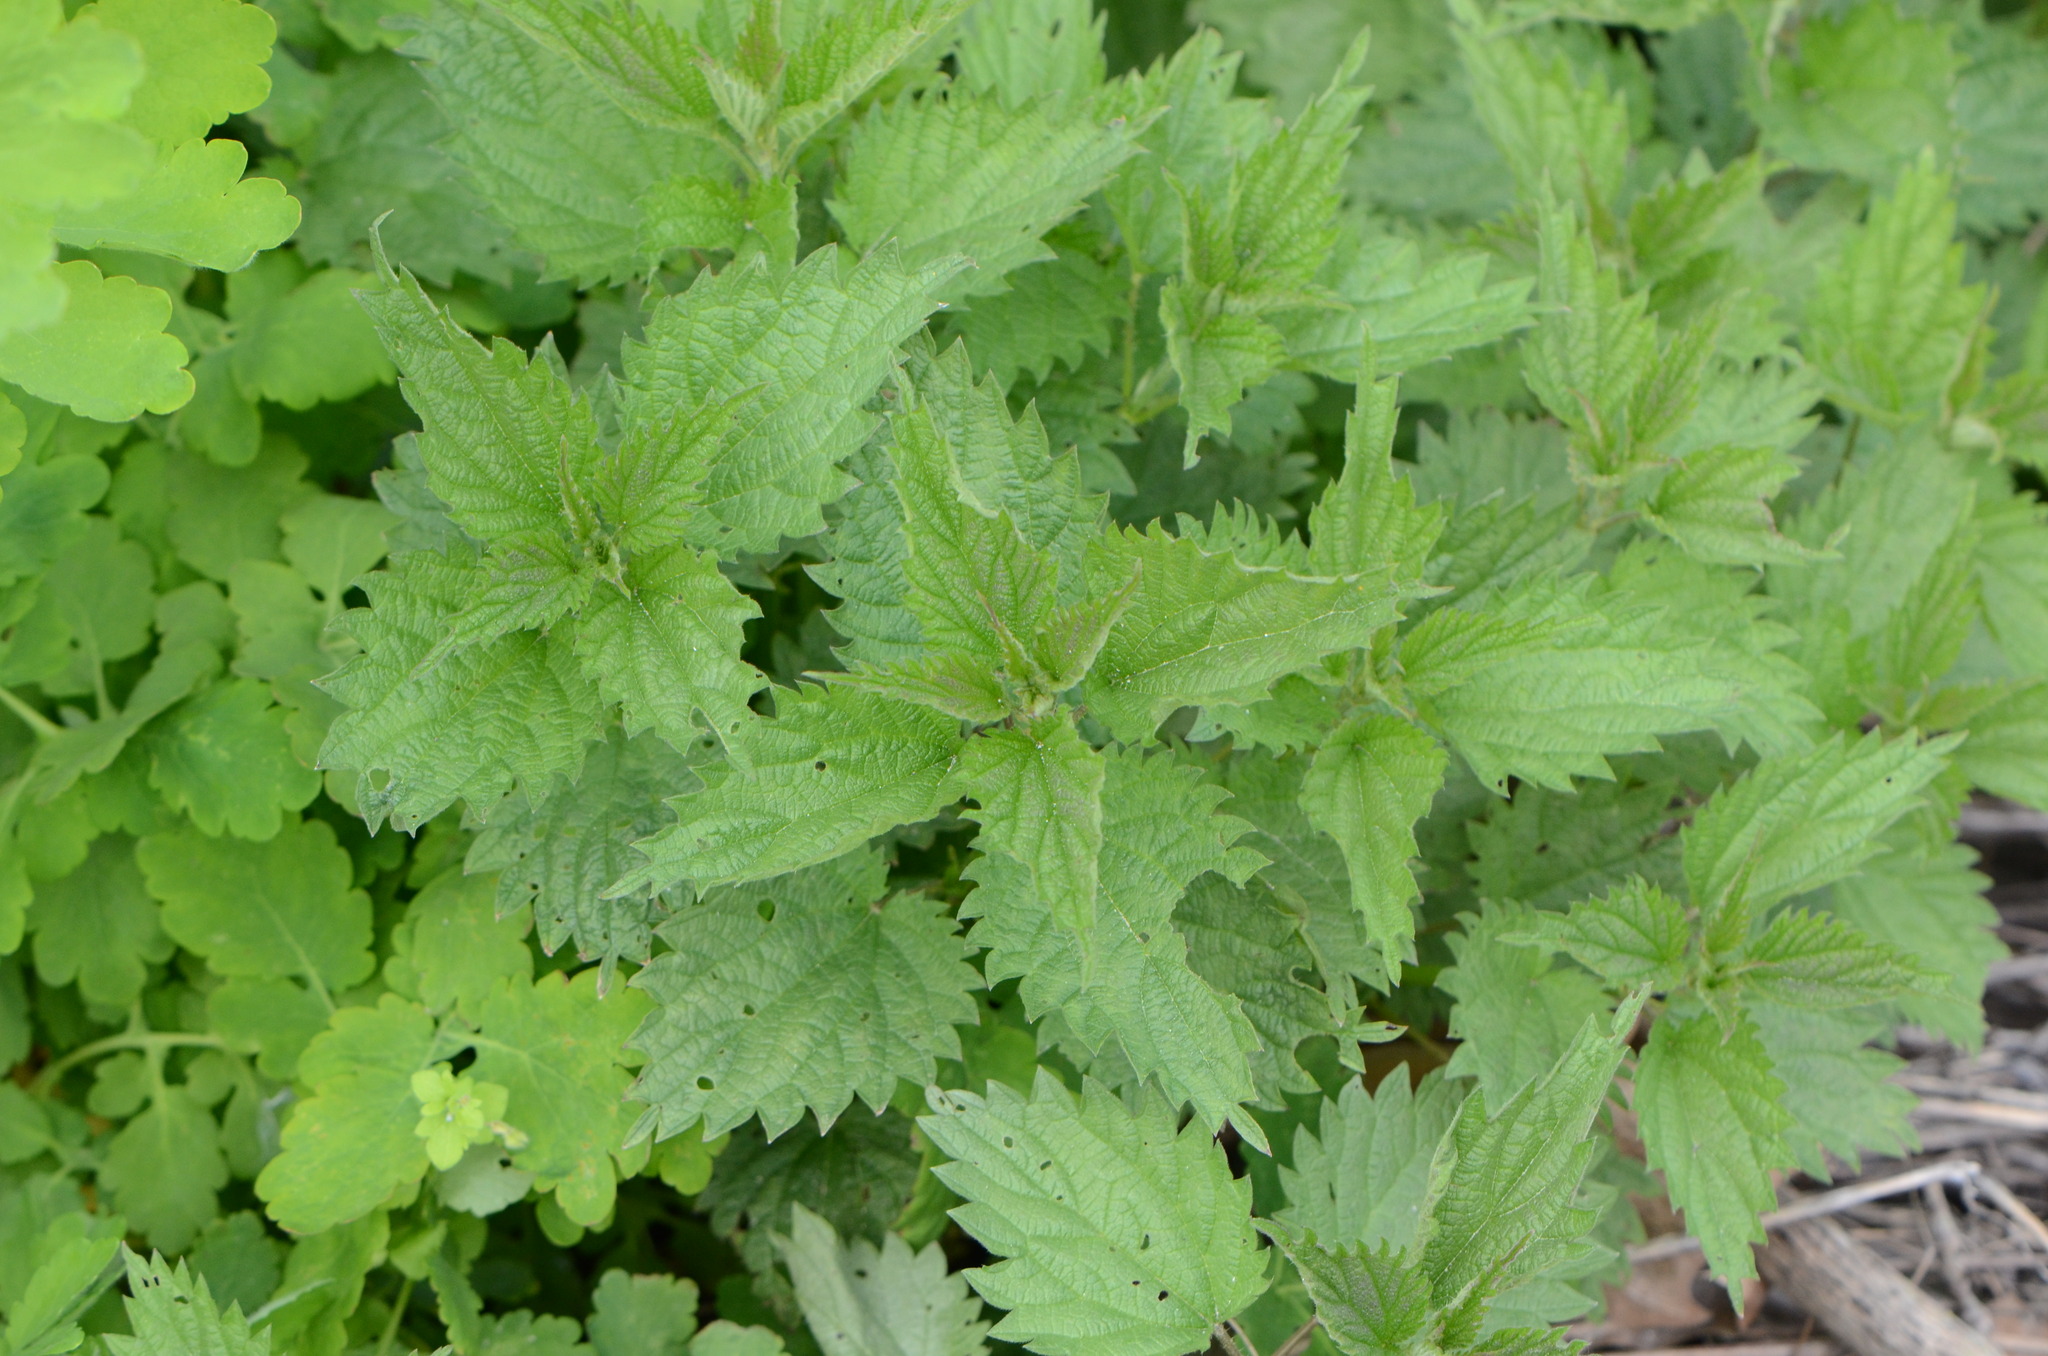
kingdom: Plantae
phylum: Tracheophyta
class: Magnoliopsida
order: Rosales
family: Urticaceae
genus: Urtica
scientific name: Urtica dioica
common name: Common nettle
